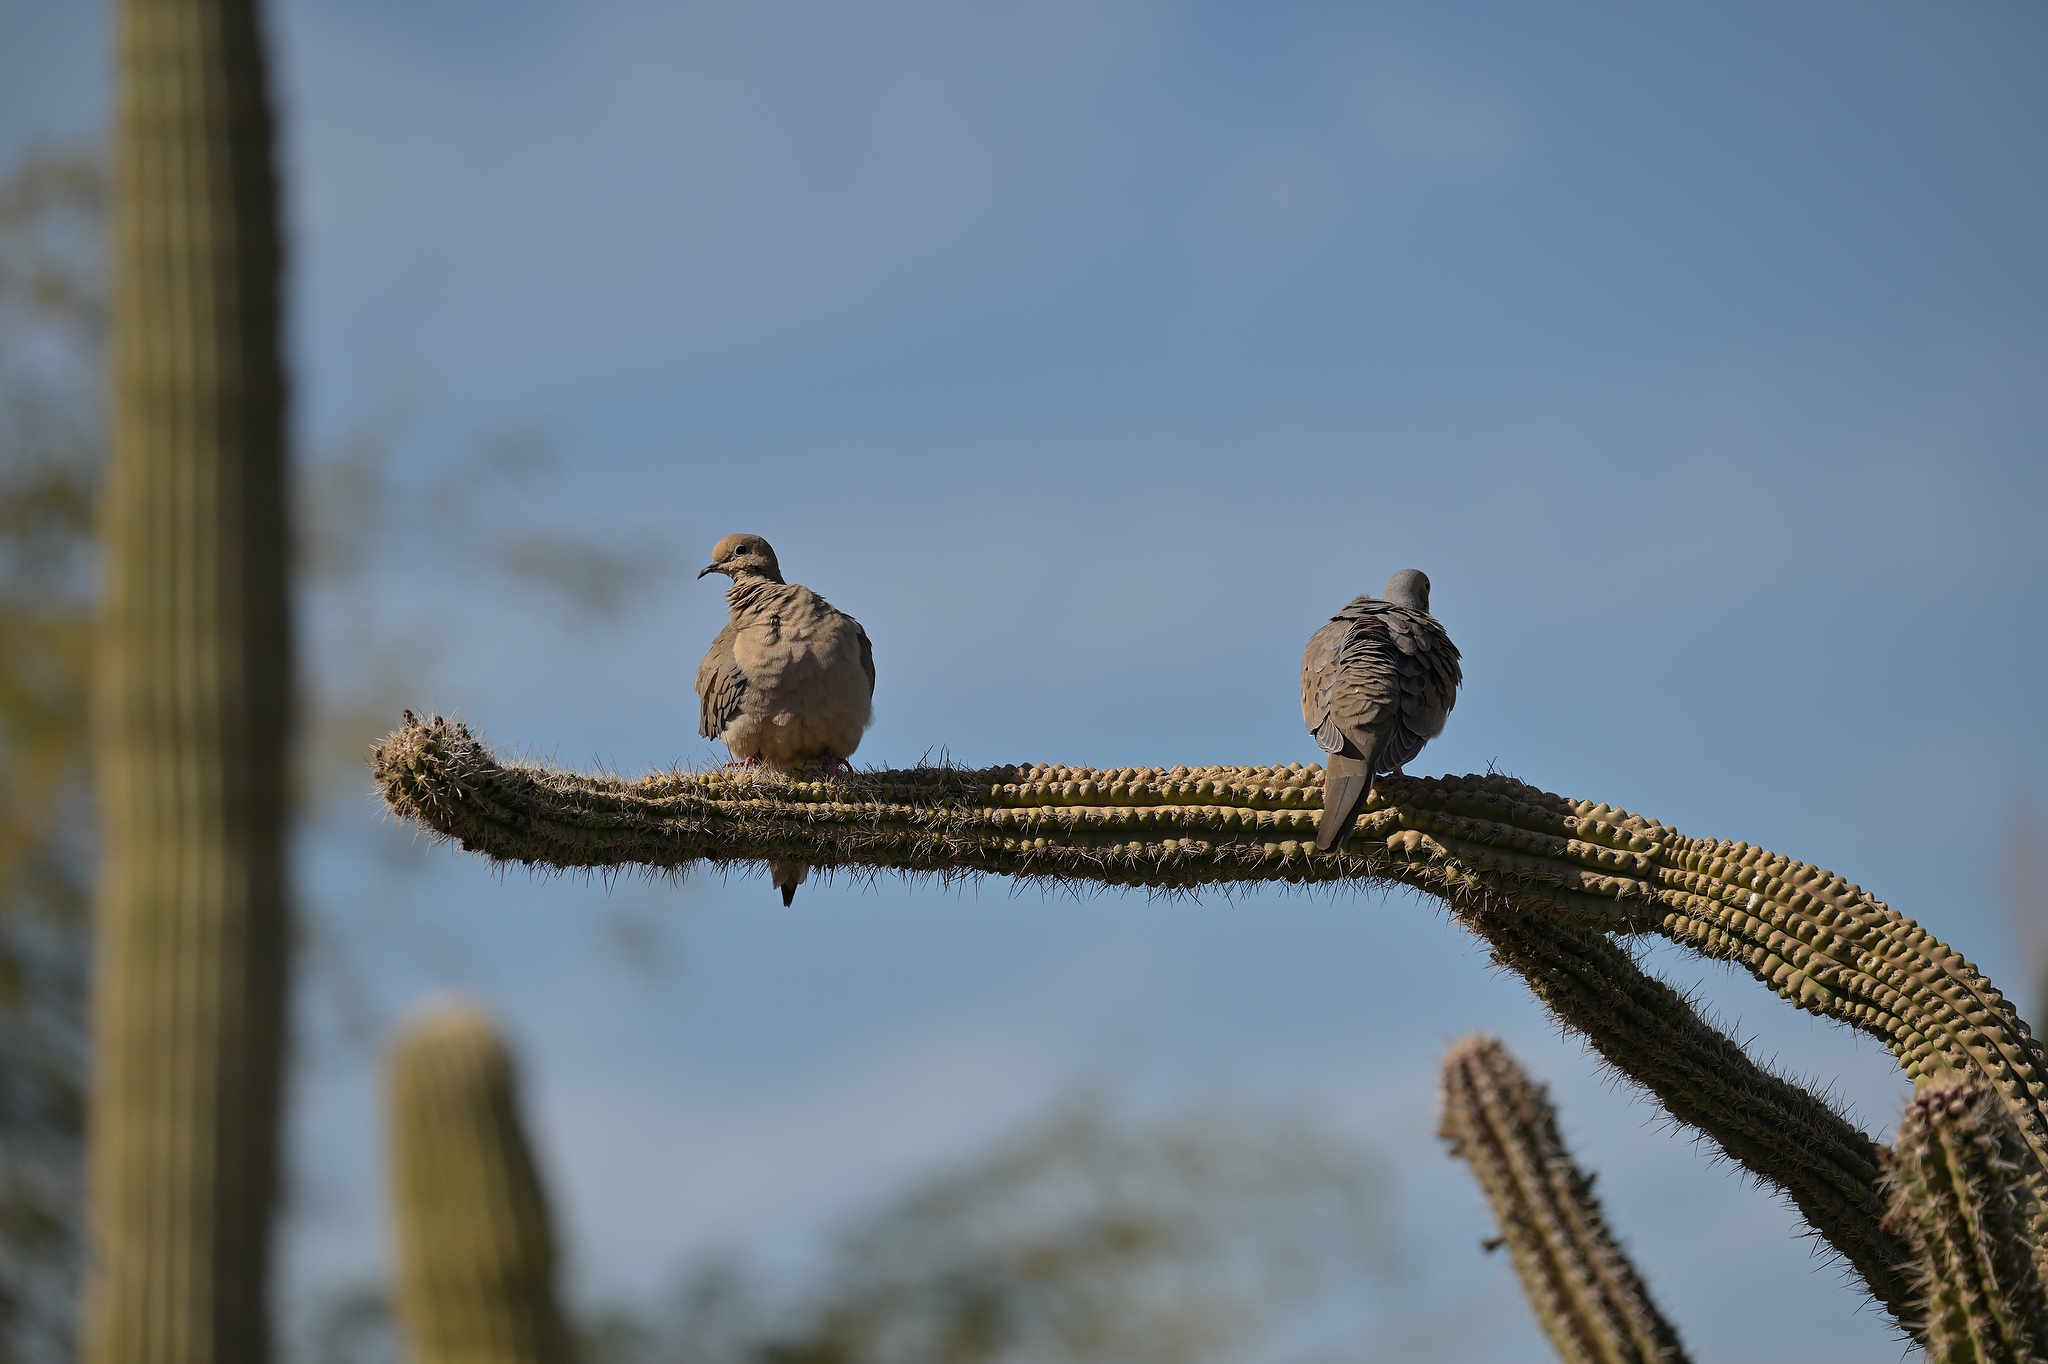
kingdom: Animalia
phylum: Chordata
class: Aves
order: Columbiformes
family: Columbidae
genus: Zenaida
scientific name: Zenaida macroura
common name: Mourning dove
